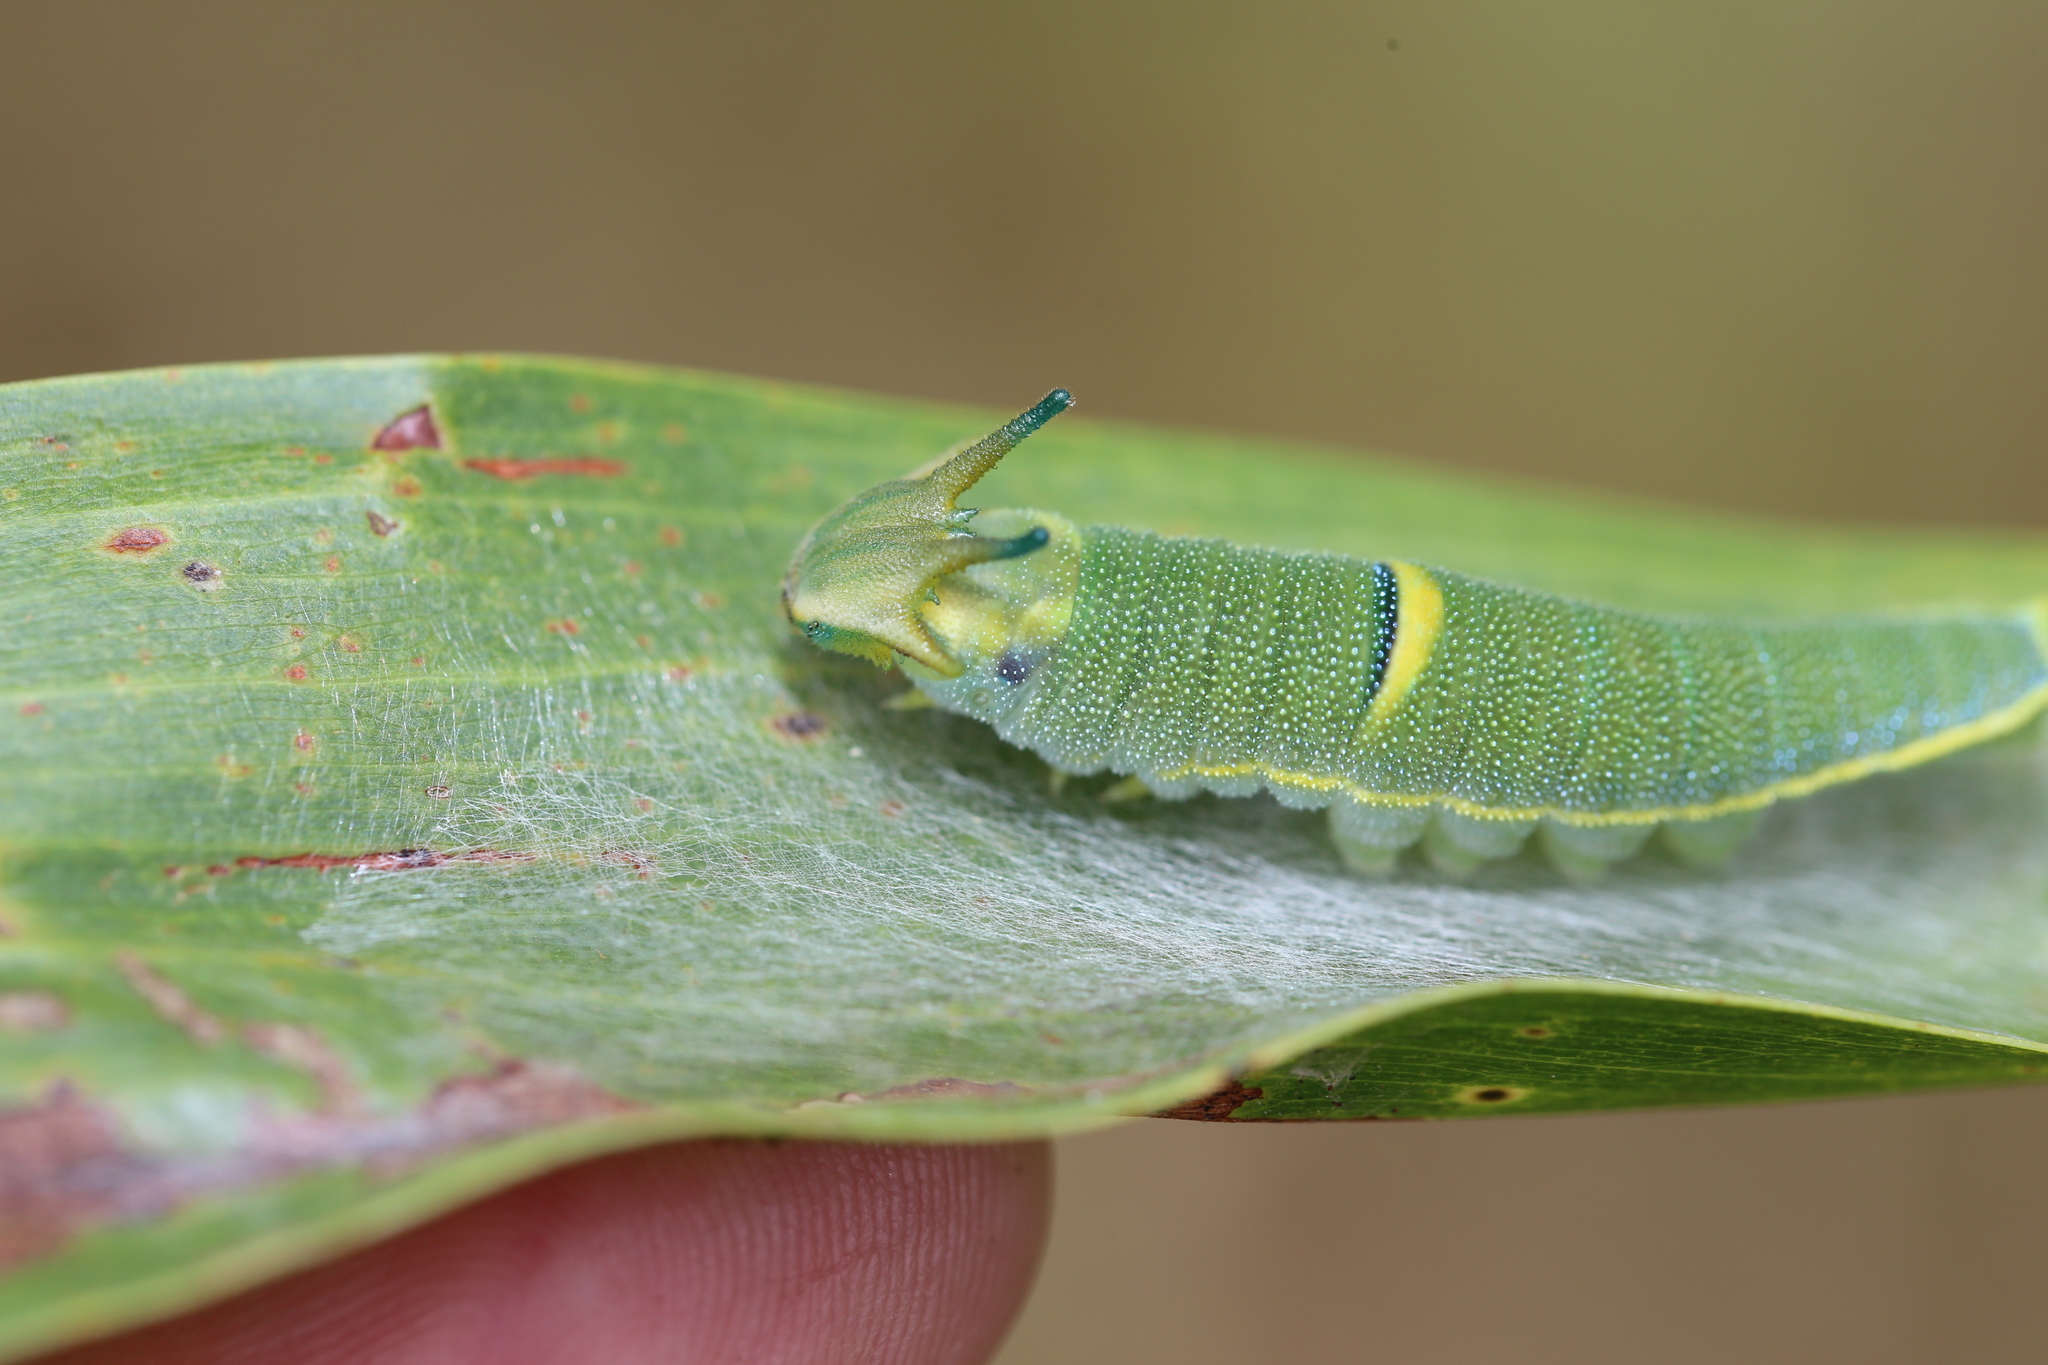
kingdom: Animalia
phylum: Arthropoda
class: Insecta
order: Lepidoptera
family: Nymphalidae
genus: Charaxes
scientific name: Charaxes
